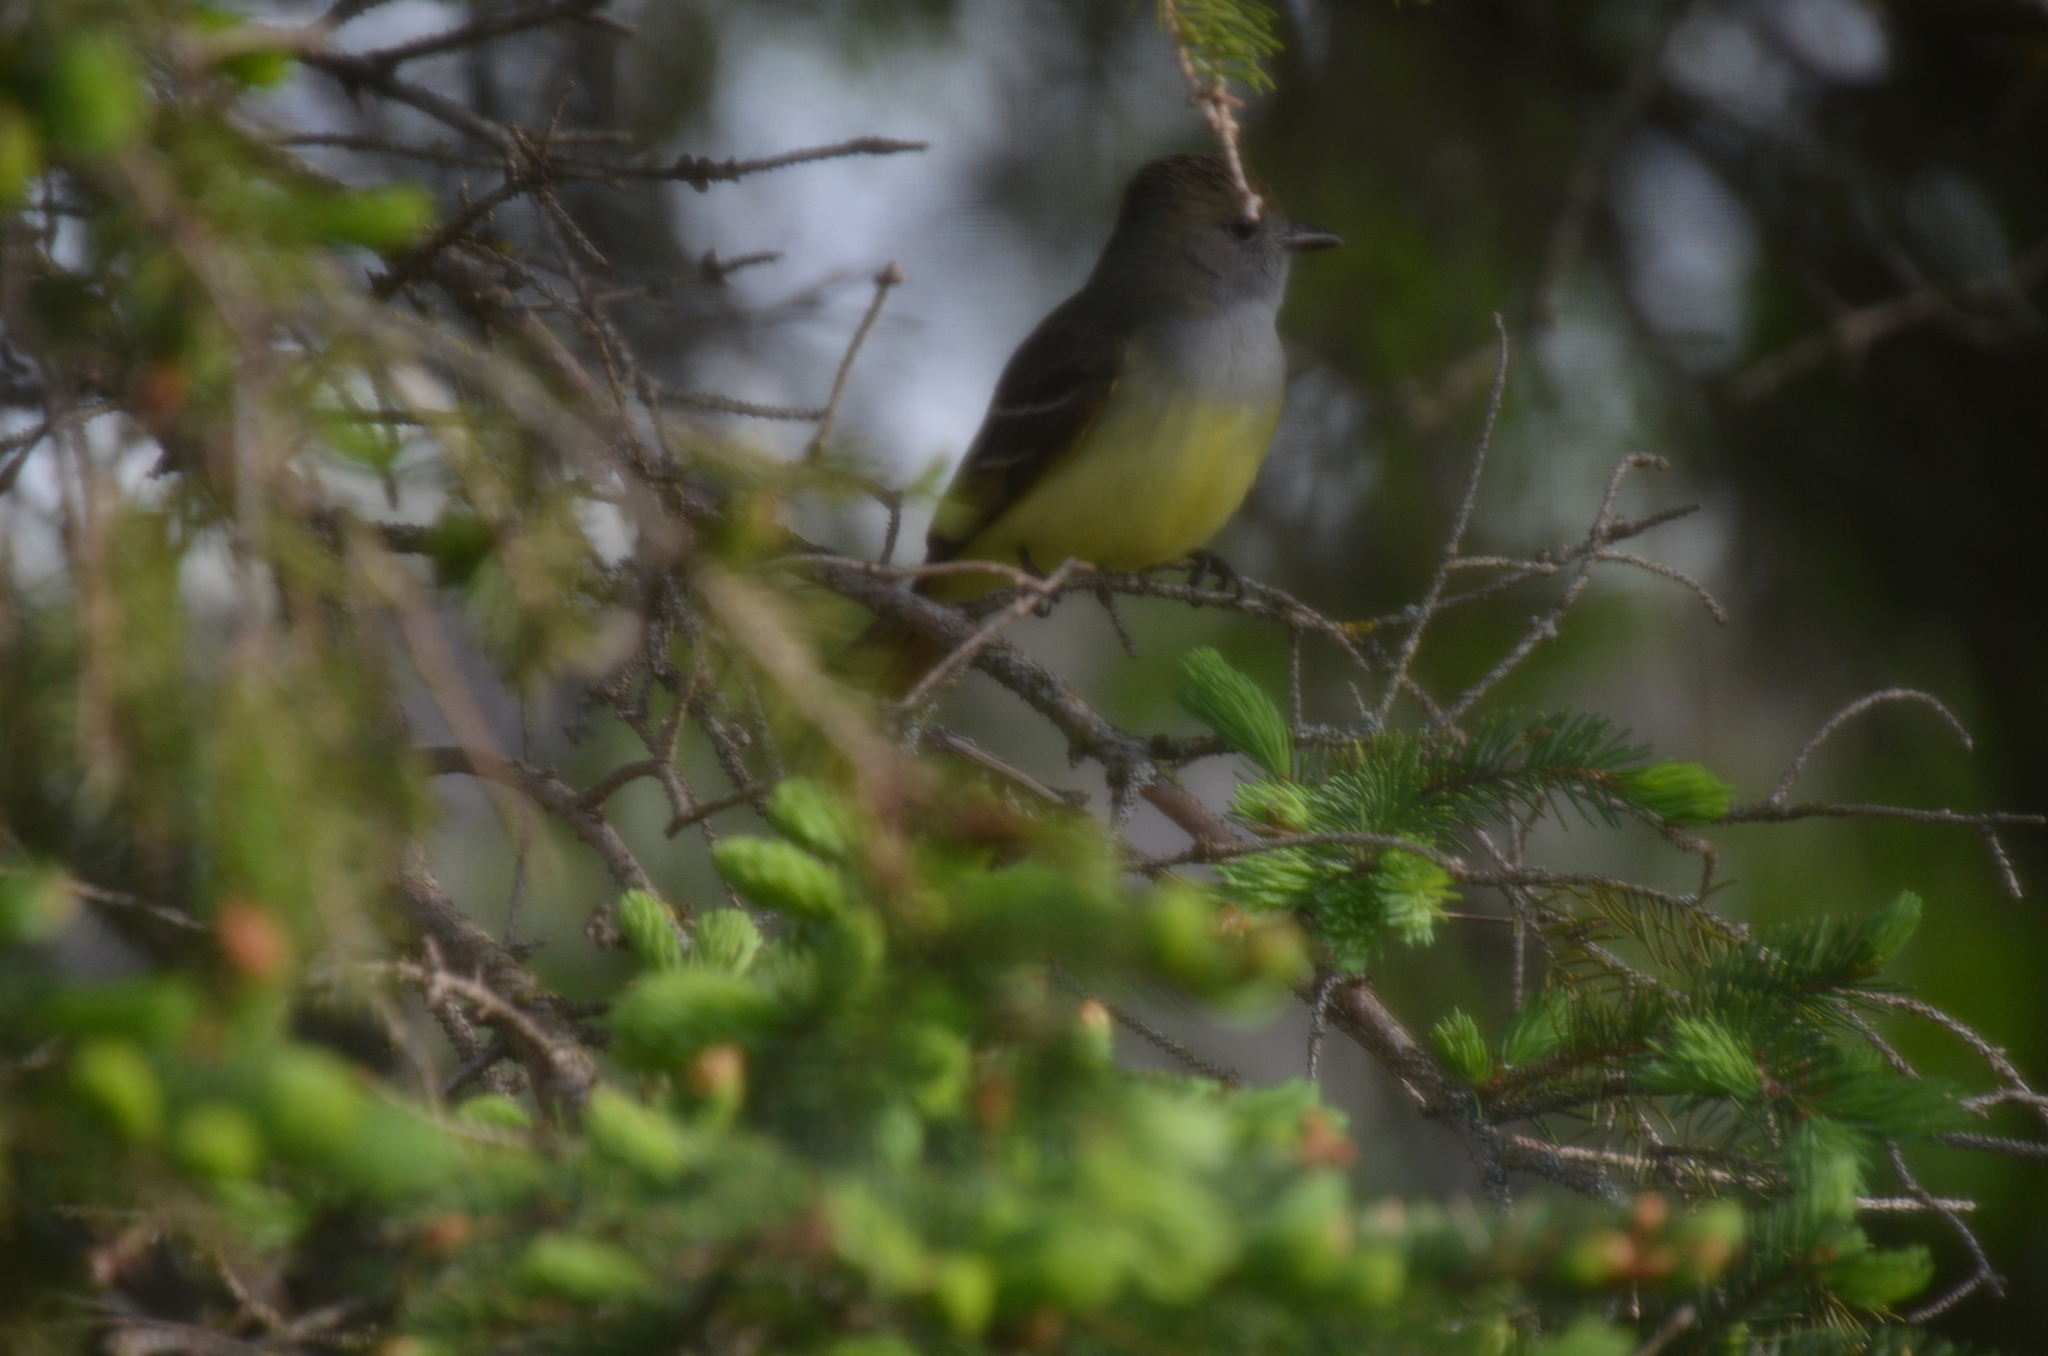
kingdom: Animalia
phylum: Chordata
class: Aves
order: Passeriformes
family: Tyrannidae
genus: Myiarchus
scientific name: Myiarchus crinitus
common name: Great crested flycatcher
